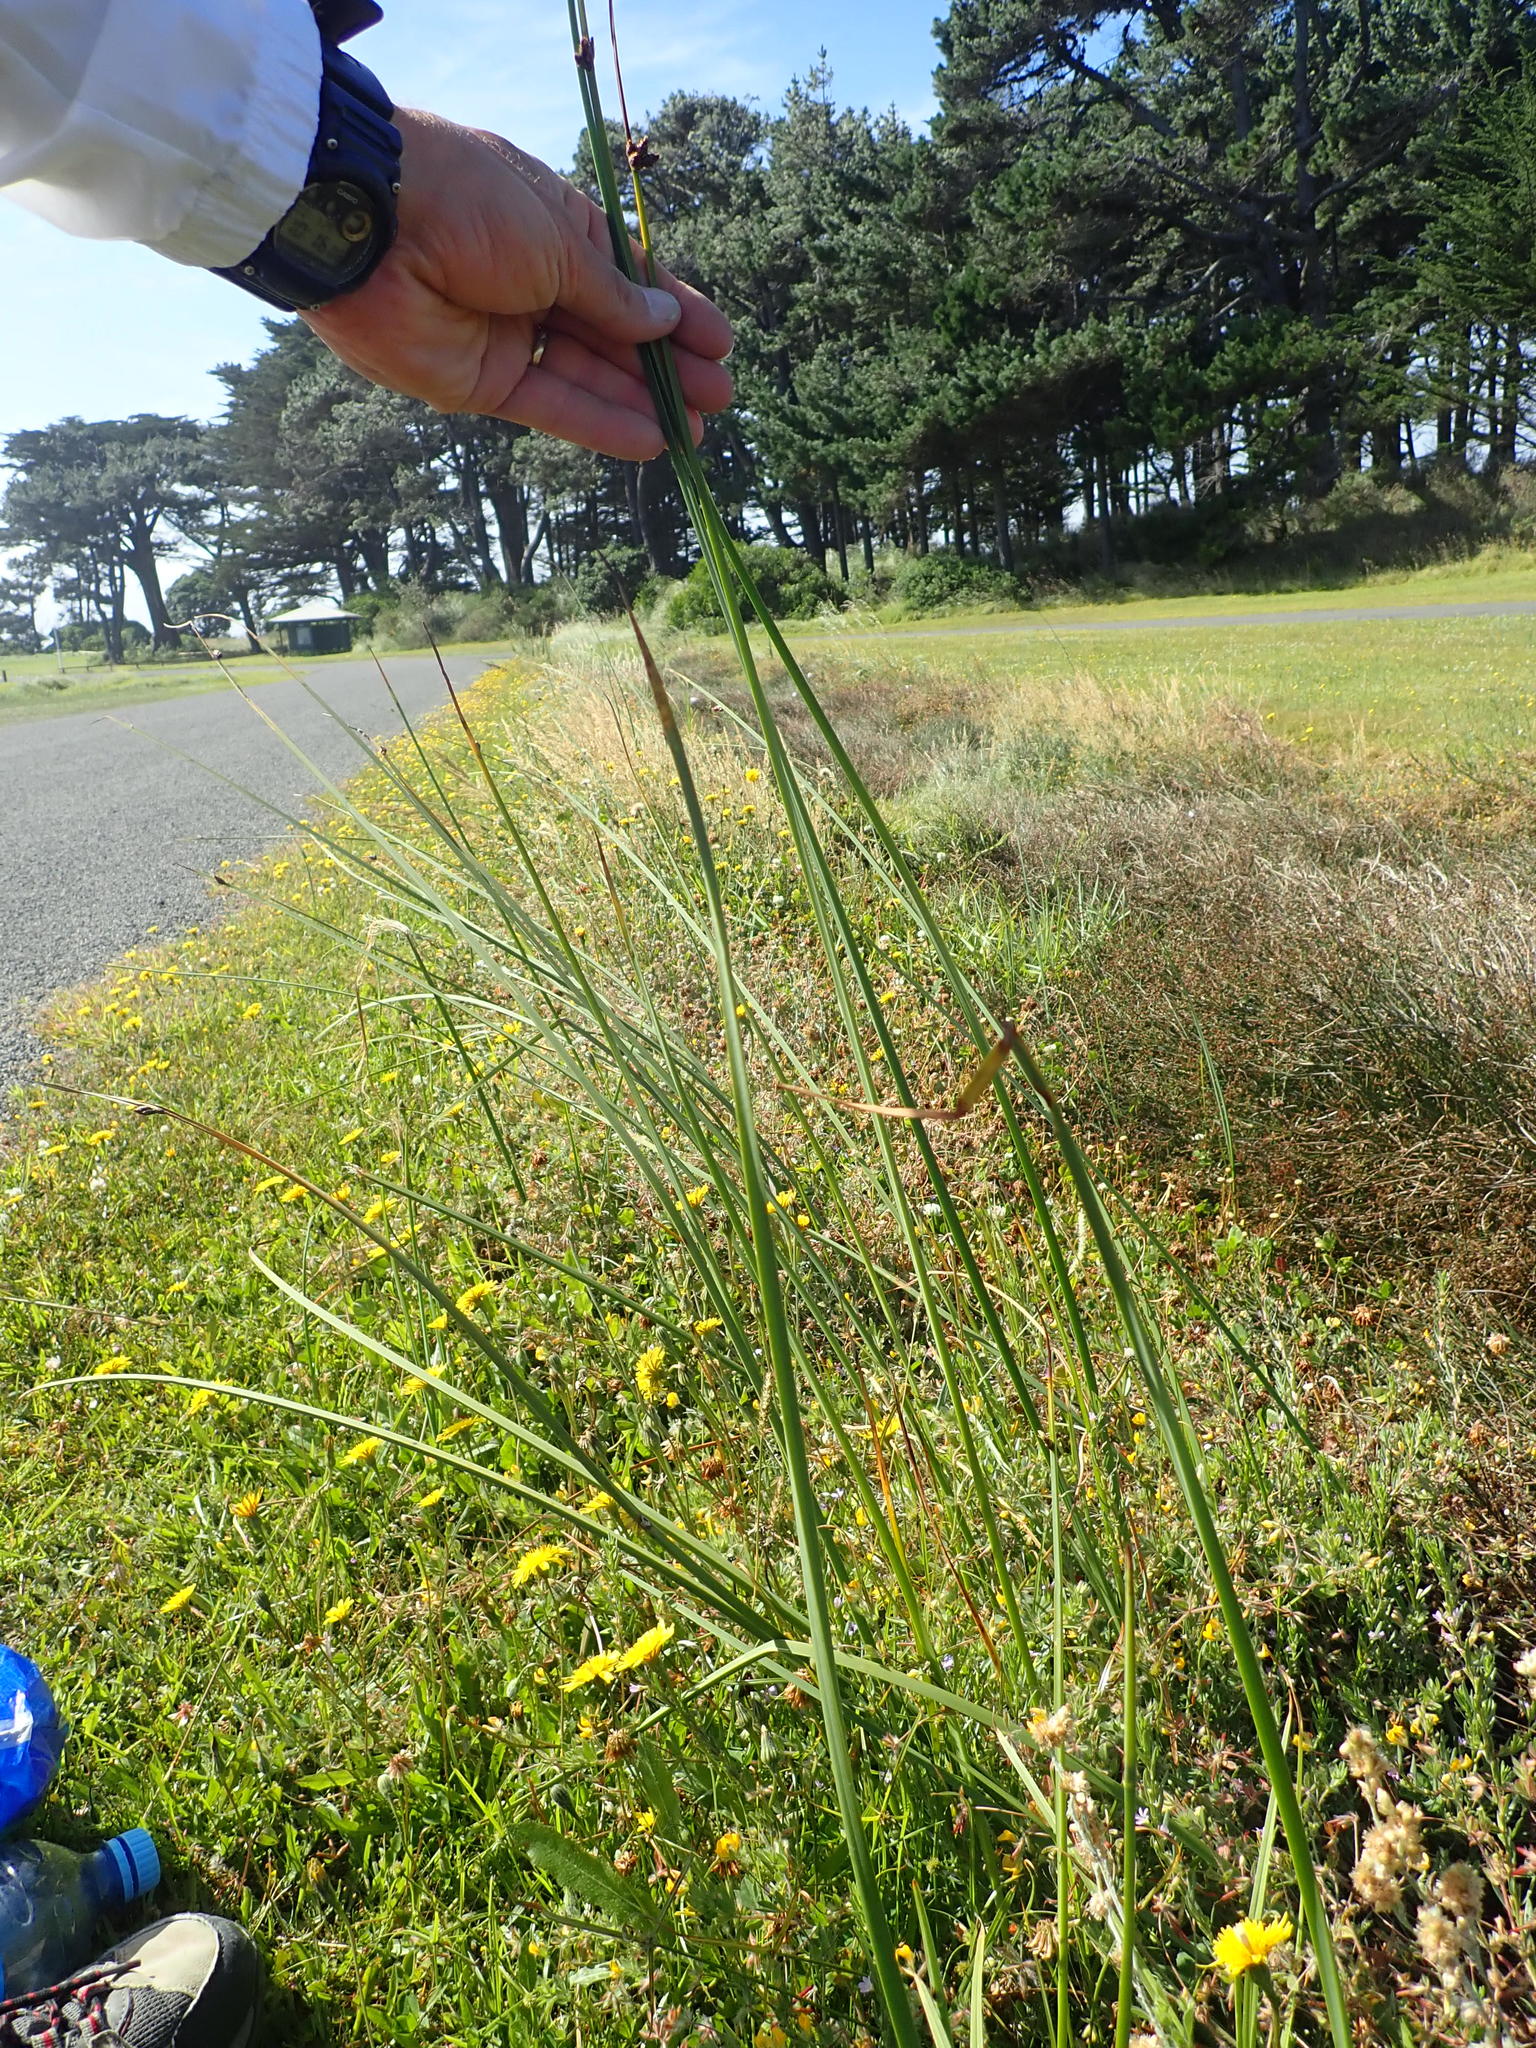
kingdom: Plantae
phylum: Tracheophyta
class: Liliopsida
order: Poales
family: Cyperaceae
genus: Schoenoplectus
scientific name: Schoenoplectus pungens
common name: Sharp club-rush
